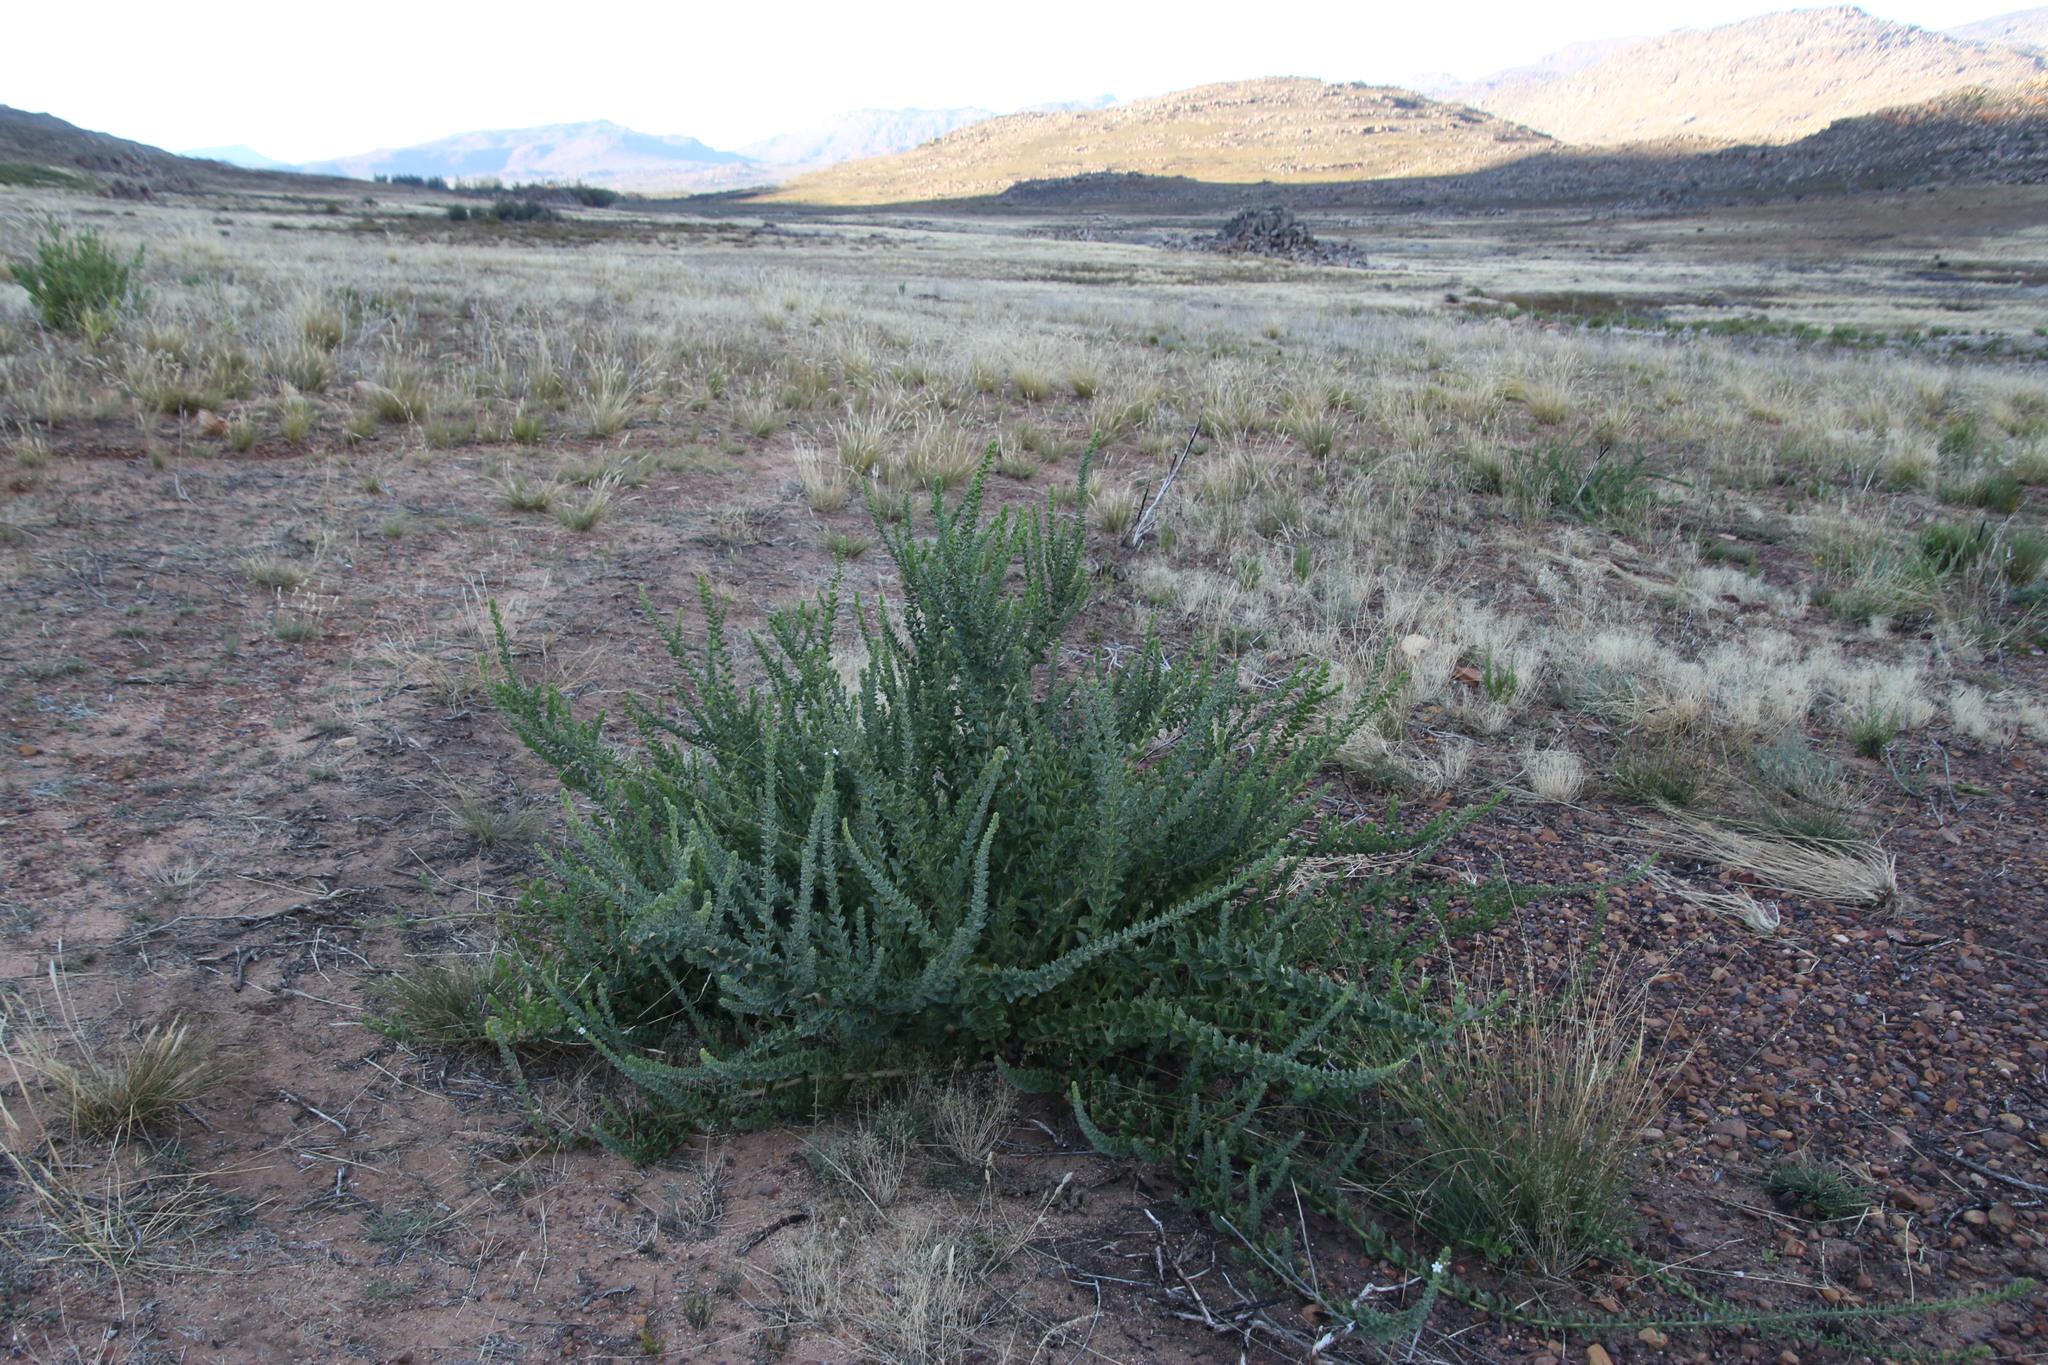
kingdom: Plantae
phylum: Tracheophyta
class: Magnoliopsida
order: Lamiales
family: Scrophulariaceae
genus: Oftia
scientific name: Oftia africana
